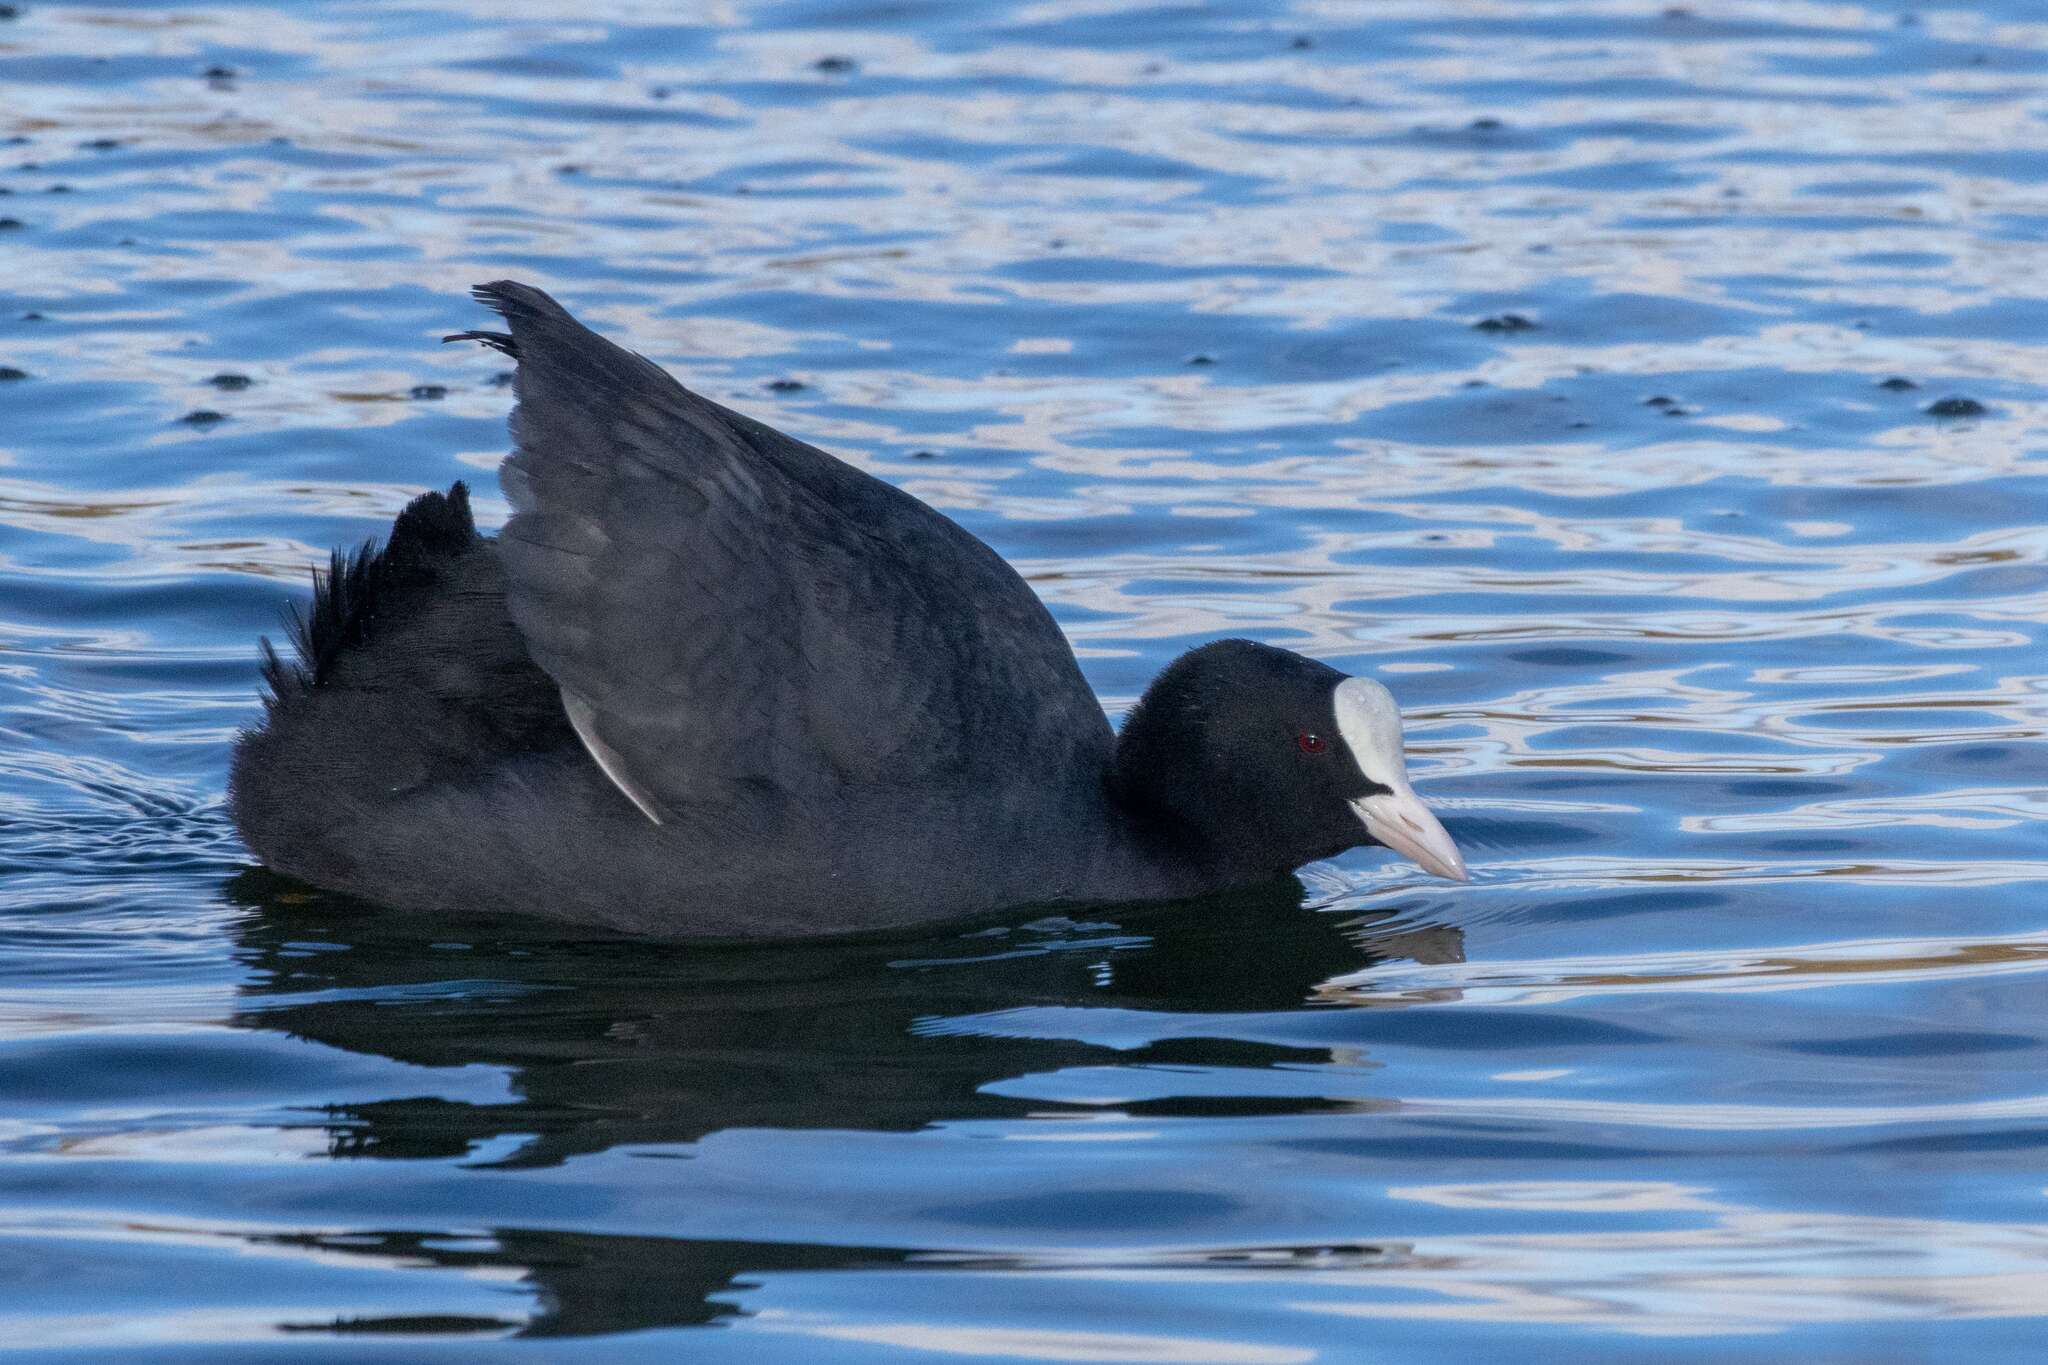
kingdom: Animalia
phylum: Chordata
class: Aves
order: Gruiformes
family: Rallidae
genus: Fulica
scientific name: Fulica atra
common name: Eurasian coot
